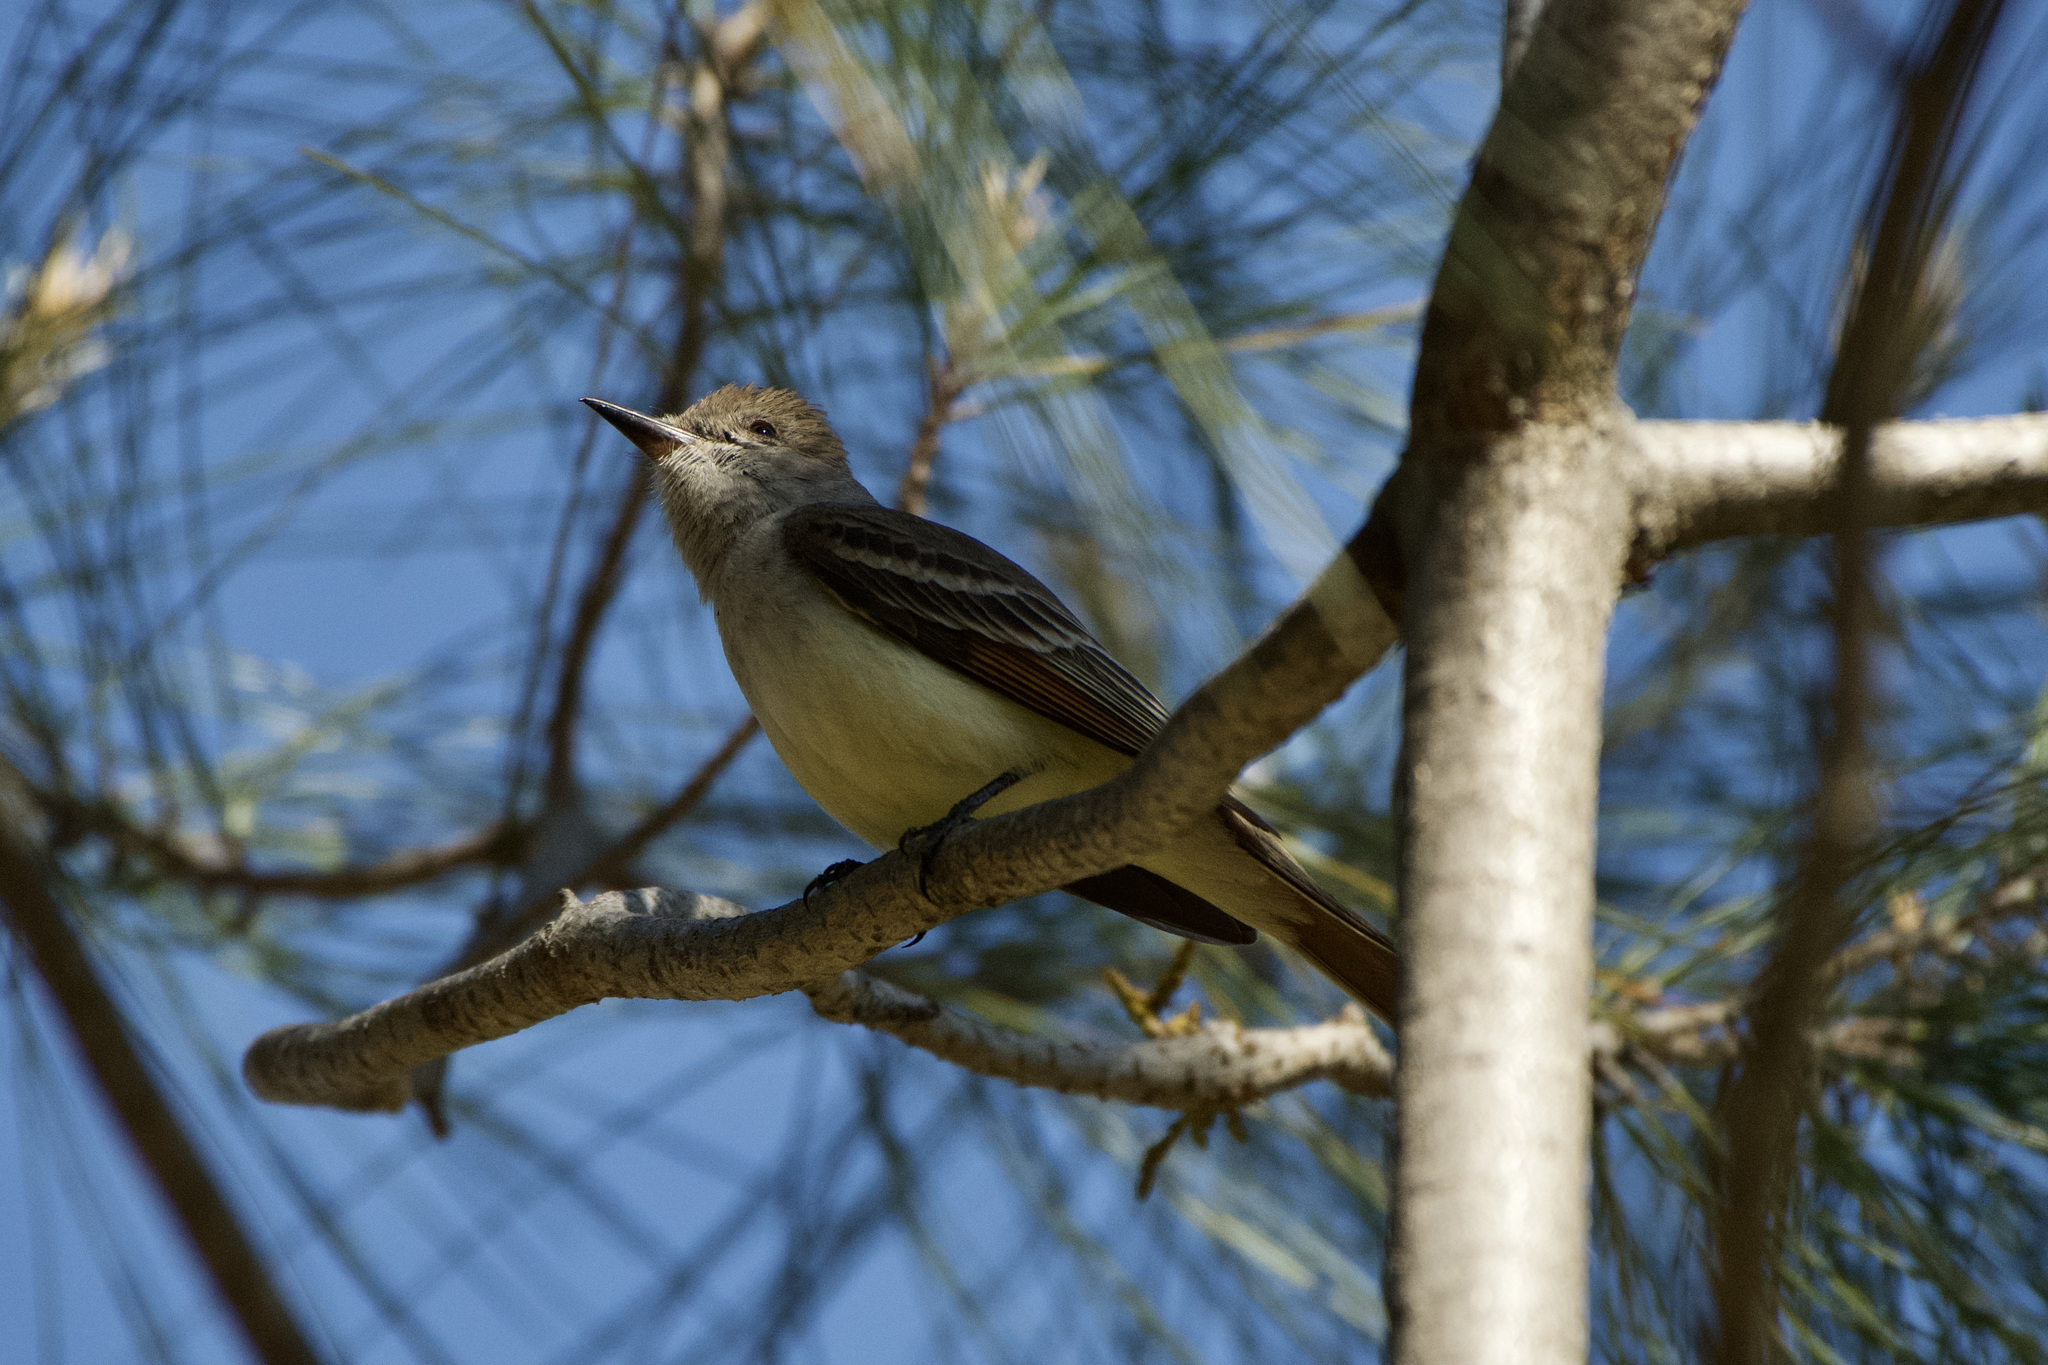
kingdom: Animalia
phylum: Chordata
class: Aves
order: Passeriformes
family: Tyrannidae
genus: Myiarchus
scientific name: Myiarchus cinerascens
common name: Ash-throated flycatcher
